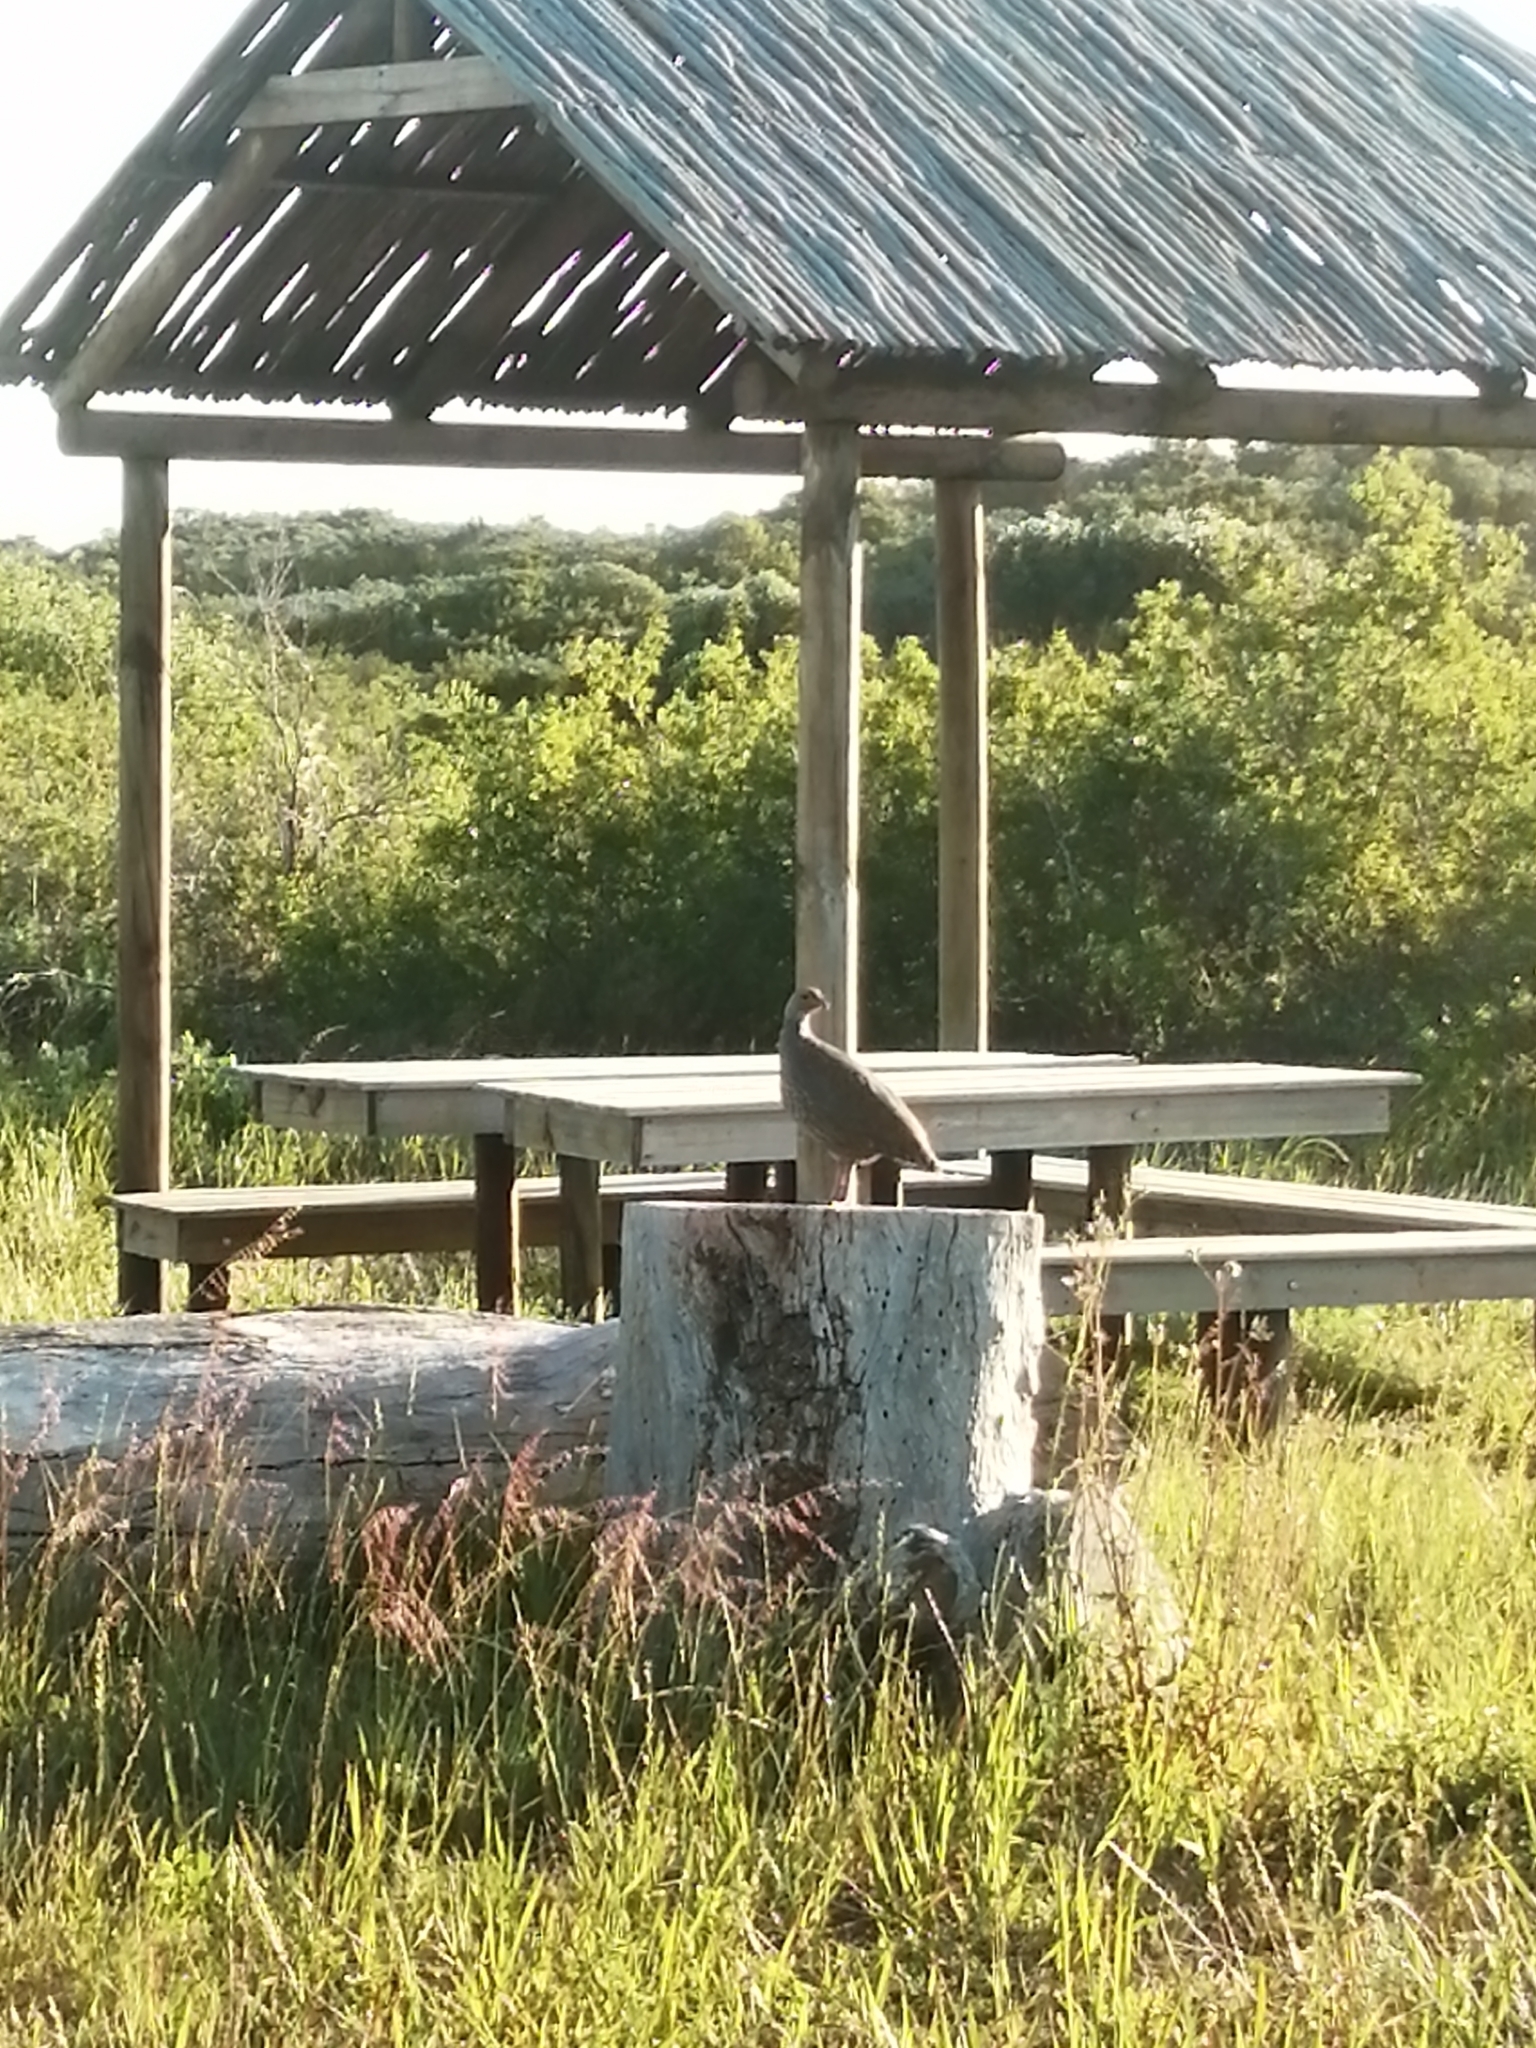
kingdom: Animalia
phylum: Chordata
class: Aves
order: Galliformes
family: Phasianidae
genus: Pternistis
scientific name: Pternistis capensis
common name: Cape spurfowl
